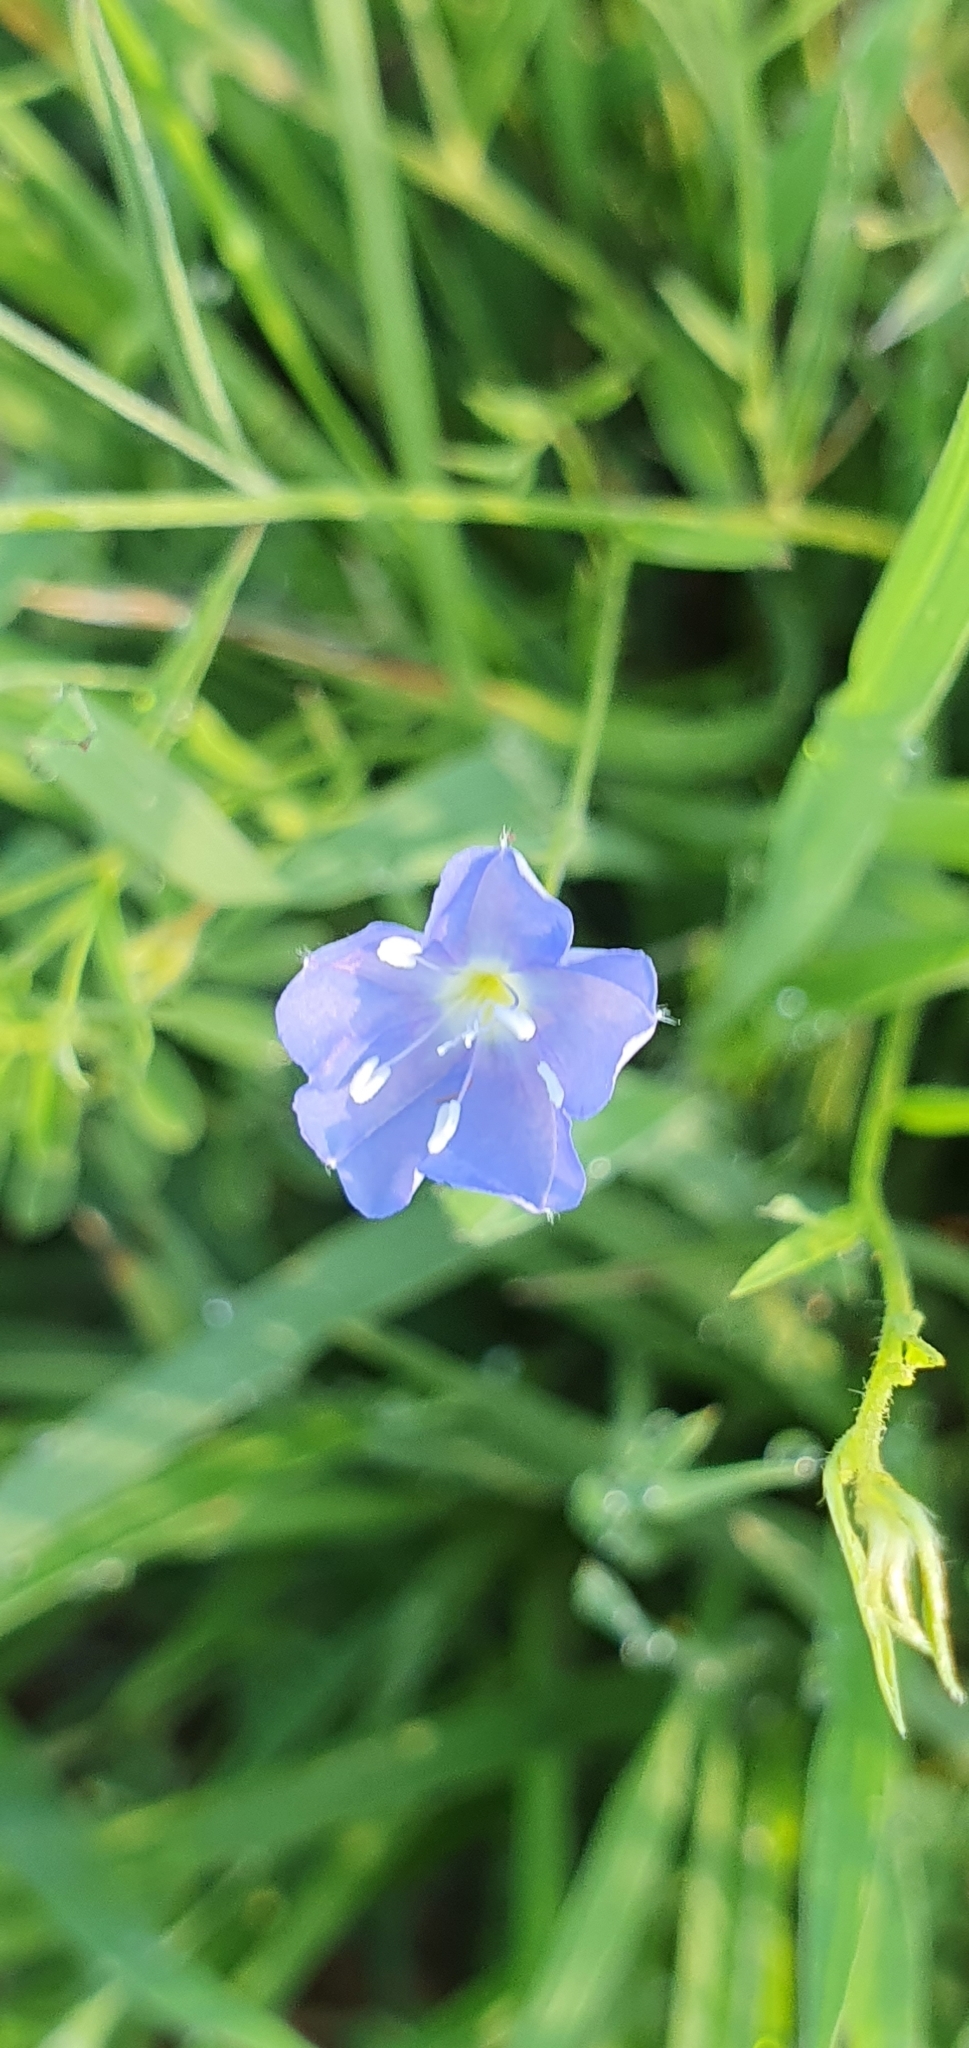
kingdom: Plantae
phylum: Tracheophyta
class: Magnoliopsida
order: Solanales
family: Convolvulaceae
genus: Evolvulus
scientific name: Evolvulus alsinoides
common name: Slender dwarf morning-glory
